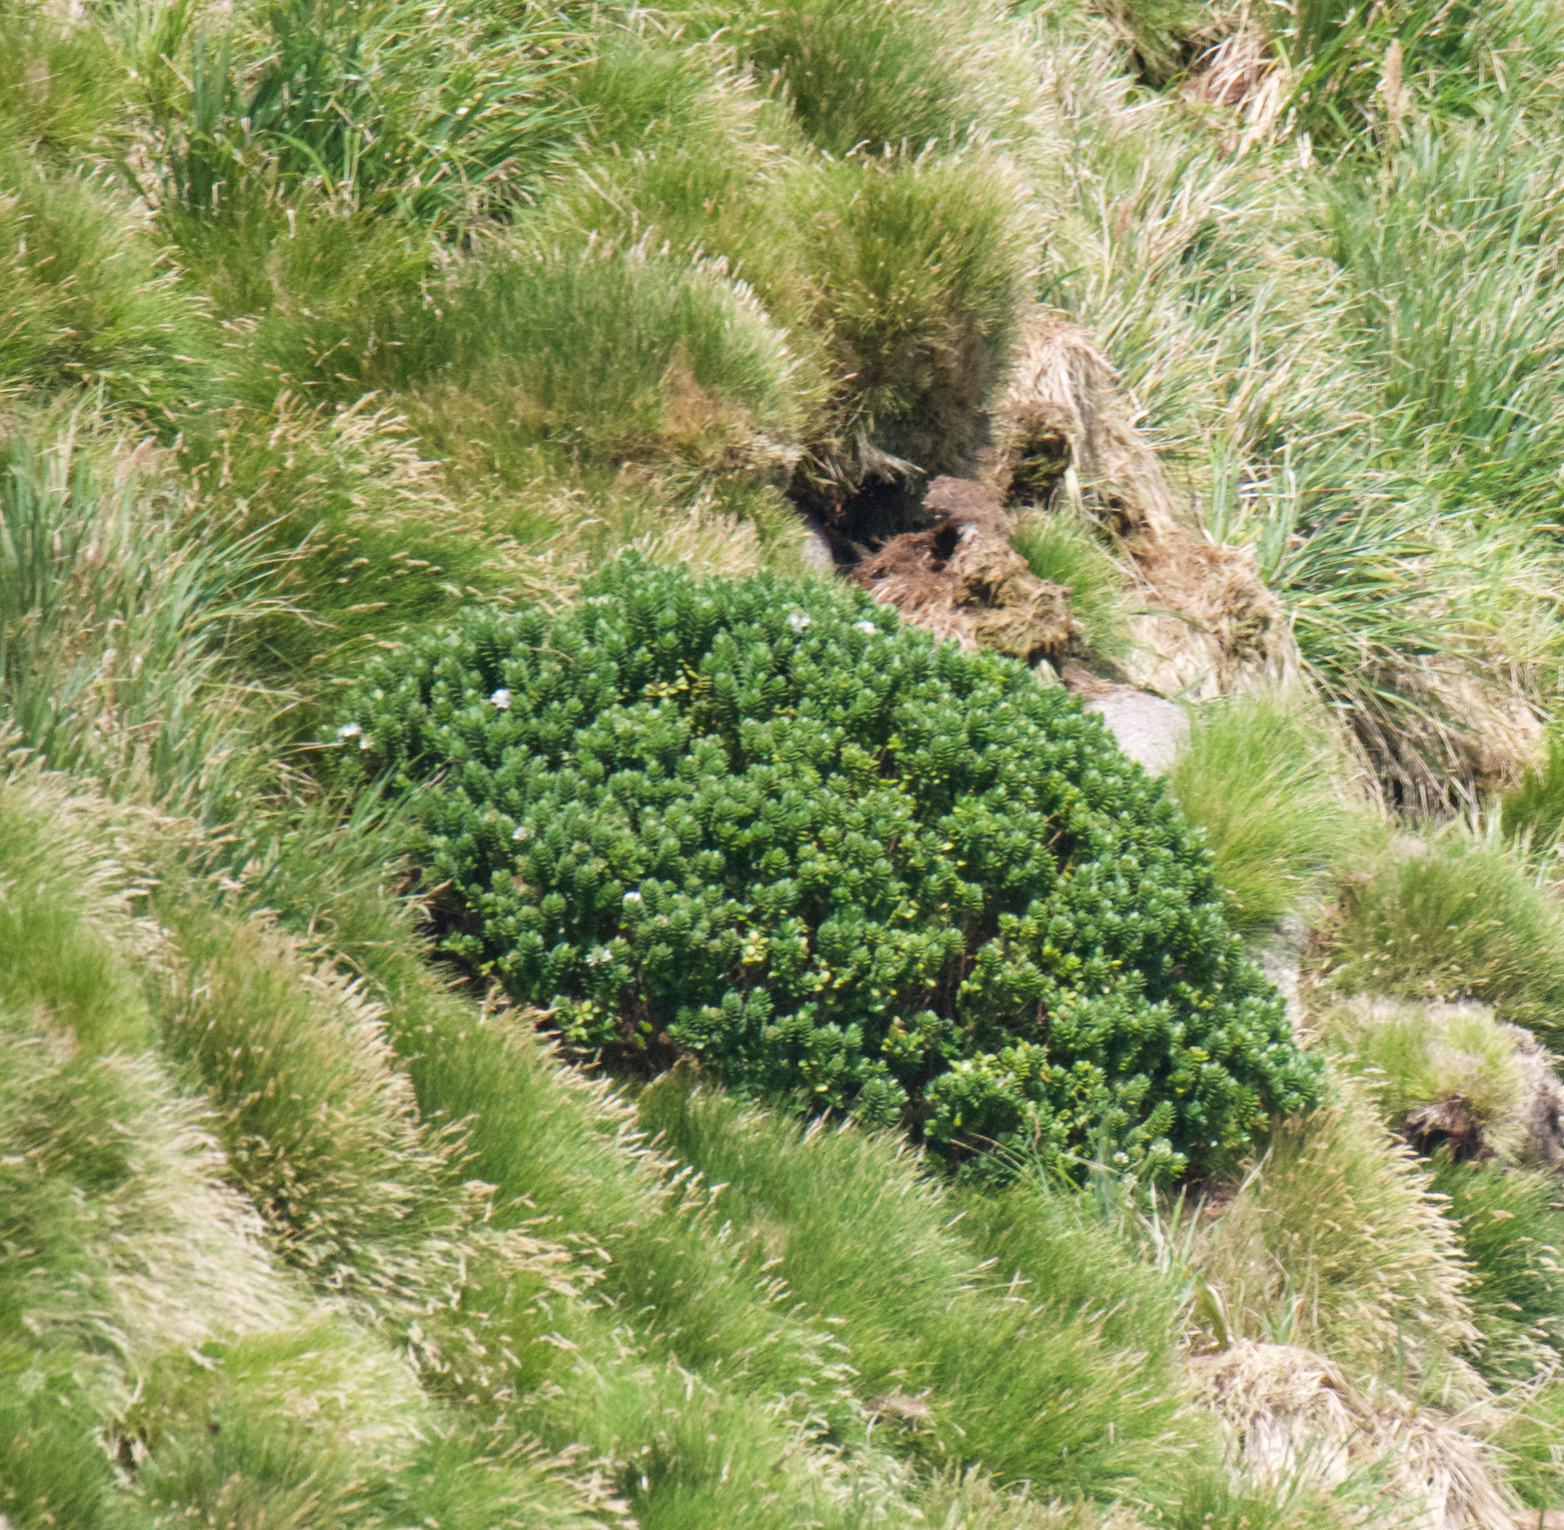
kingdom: Plantae
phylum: Tracheophyta
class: Magnoliopsida
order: Lamiales
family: Plantaginaceae
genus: Veronica
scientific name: Veronica elliptica
